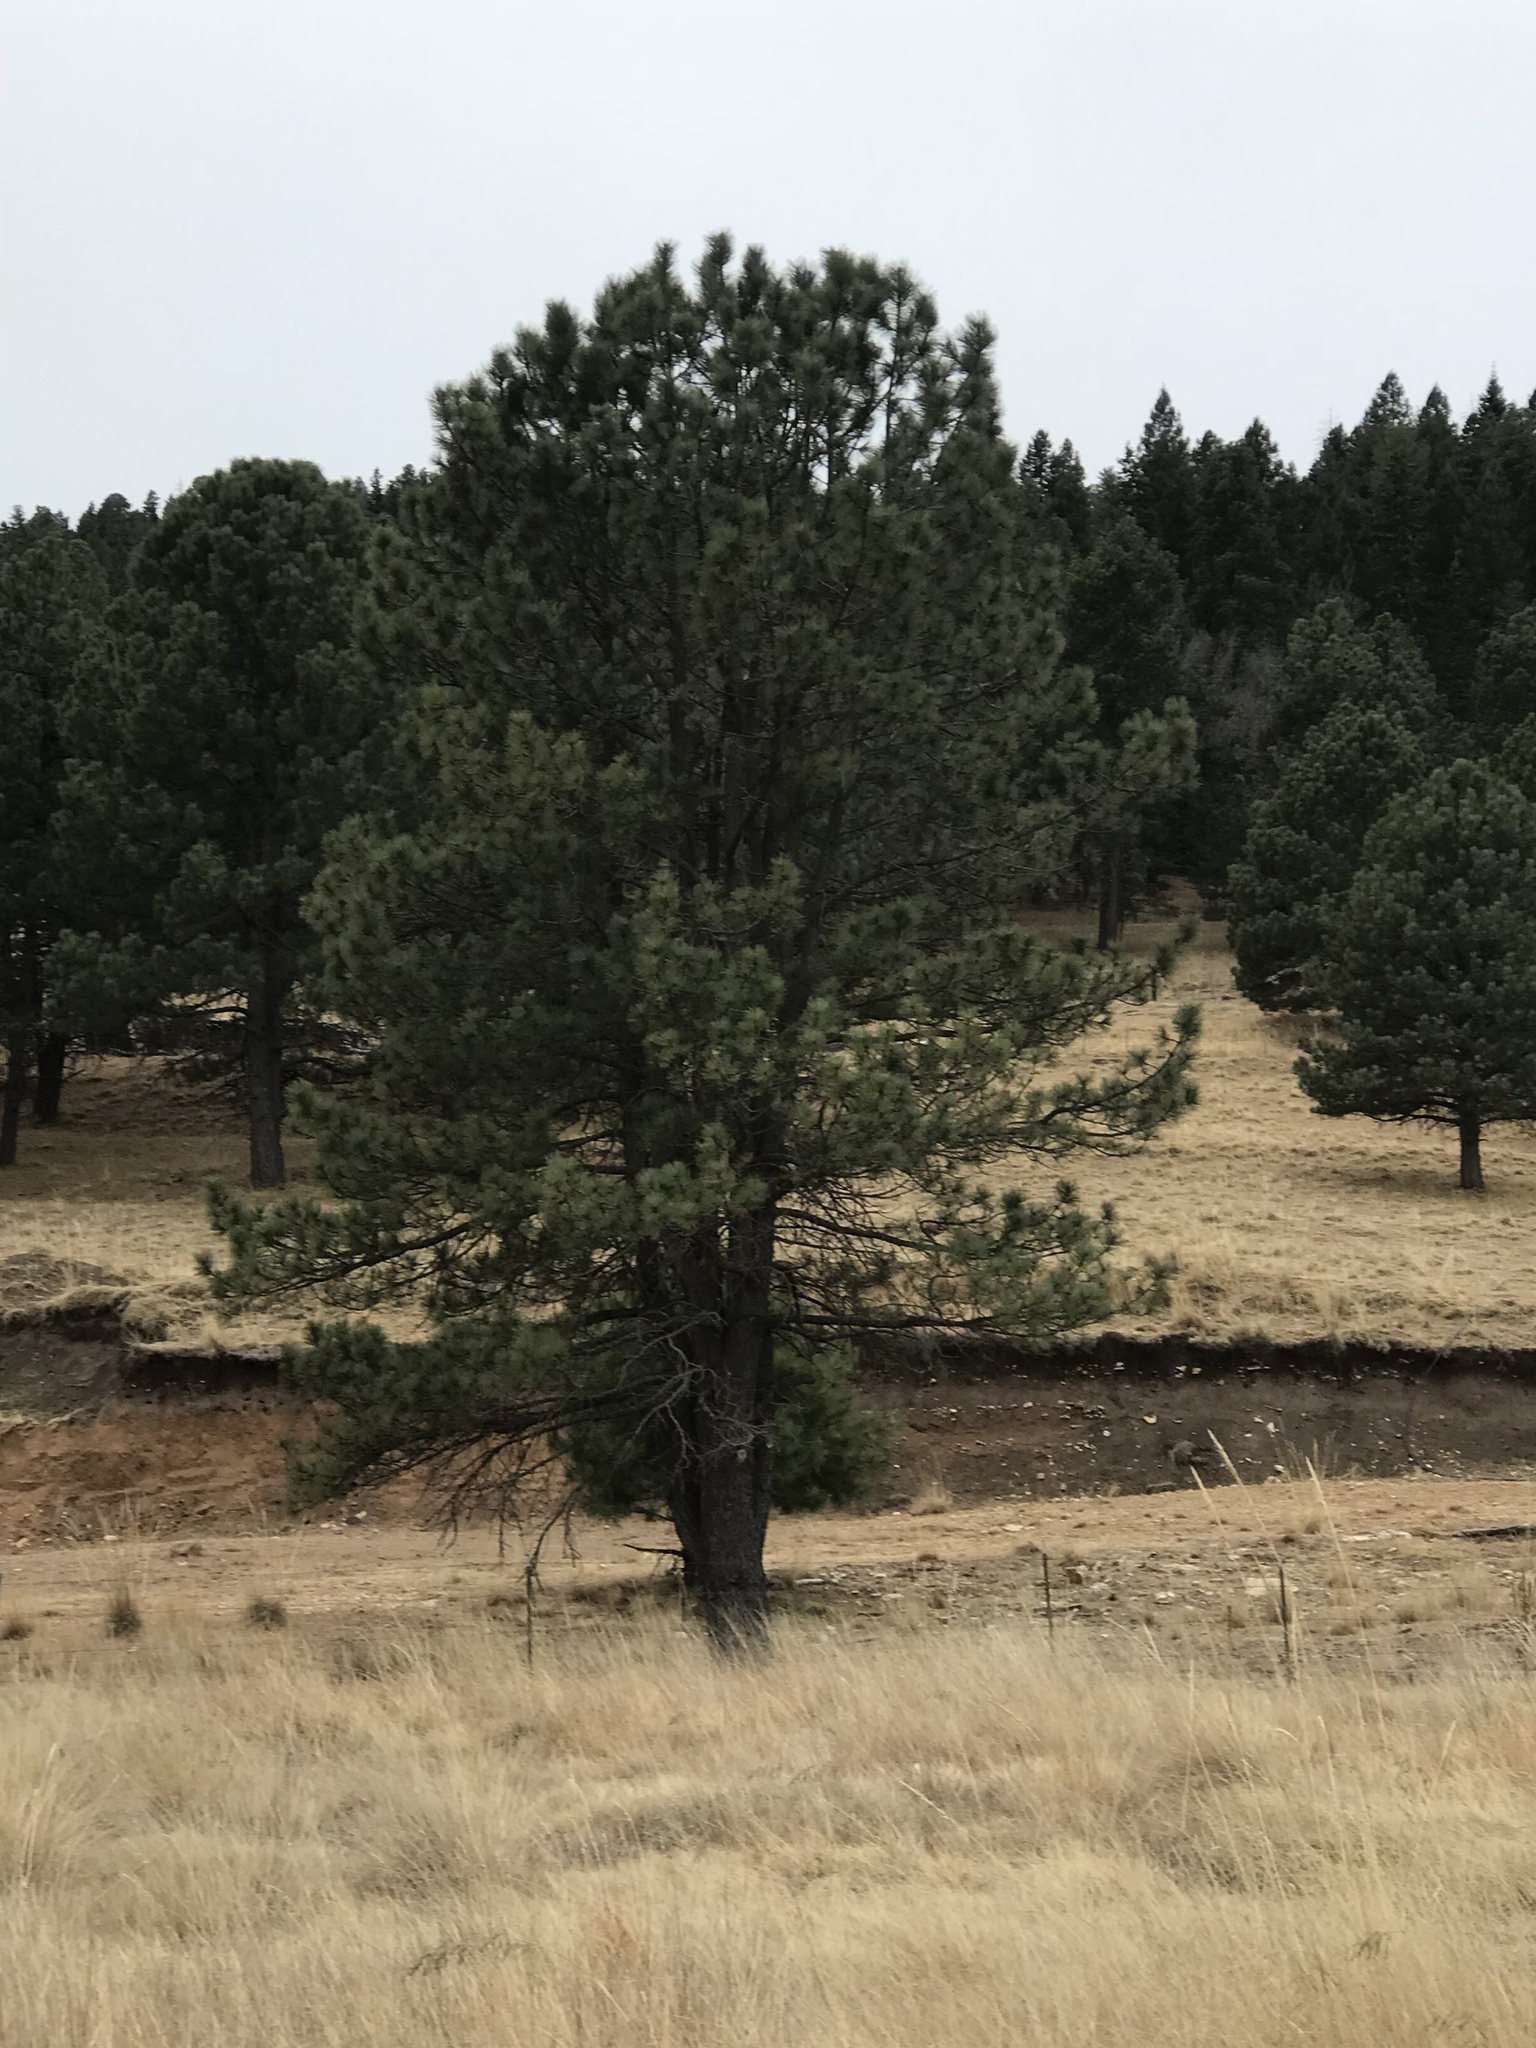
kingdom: Plantae
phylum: Tracheophyta
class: Pinopsida
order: Pinales
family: Pinaceae
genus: Pinus
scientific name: Pinus ponderosa
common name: Western yellow-pine
